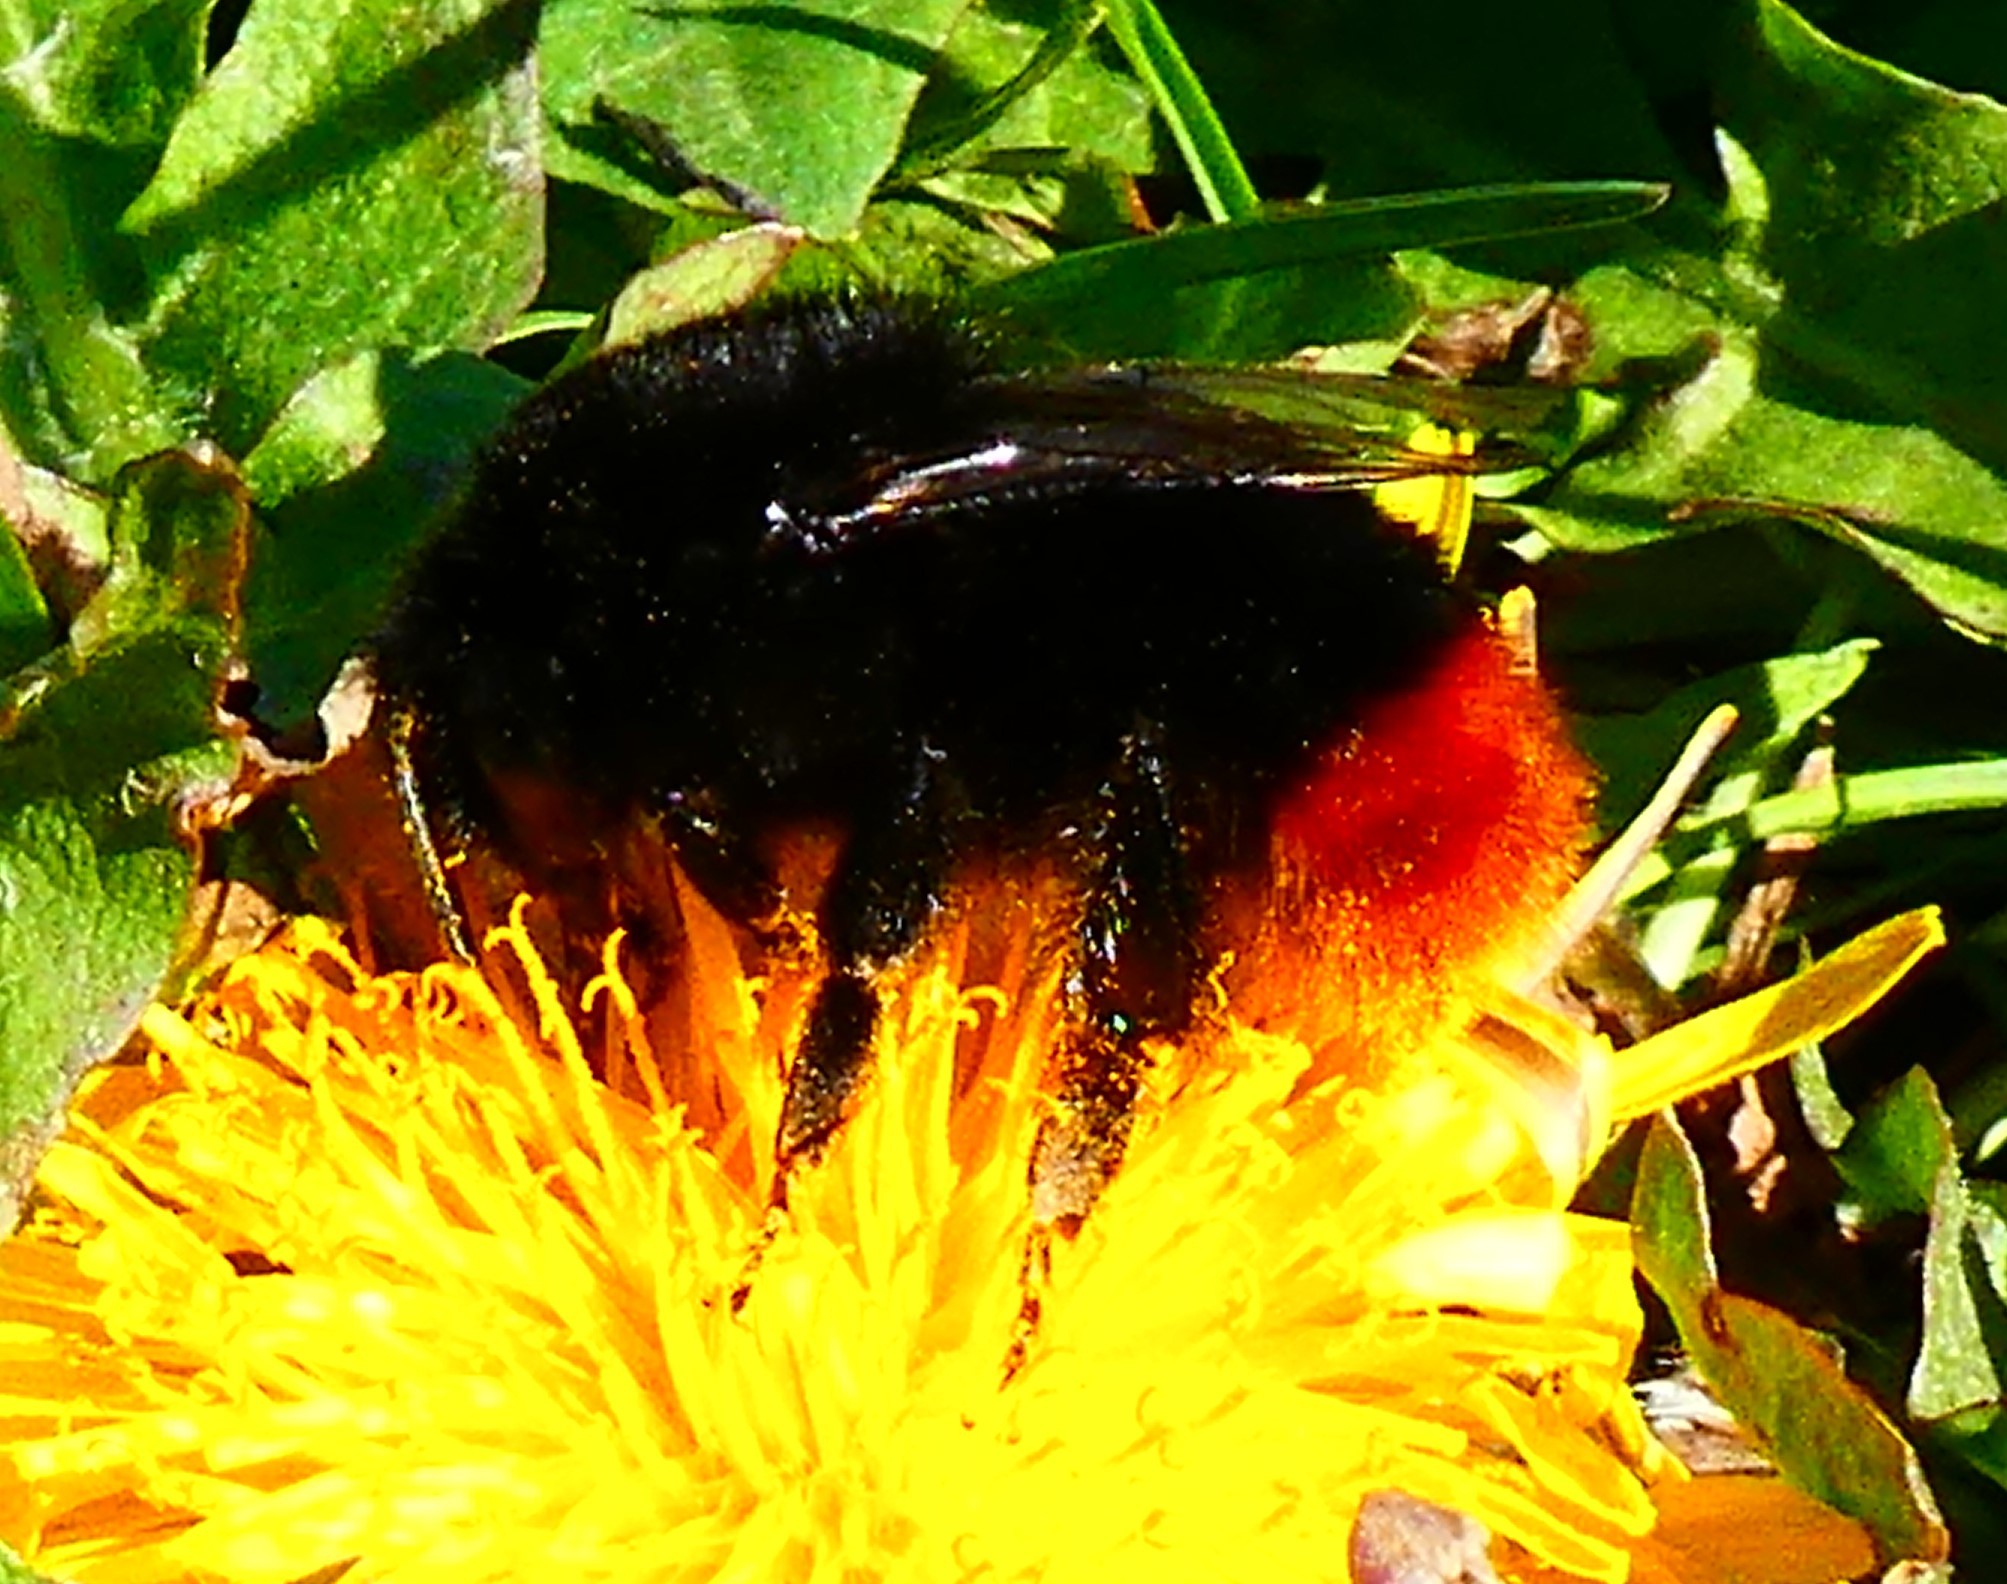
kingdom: Animalia
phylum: Arthropoda
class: Insecta
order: Hymenoptera
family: Apidae
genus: Bombus
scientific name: Bombus lapidarius
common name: Large red-tailed humble-bee
